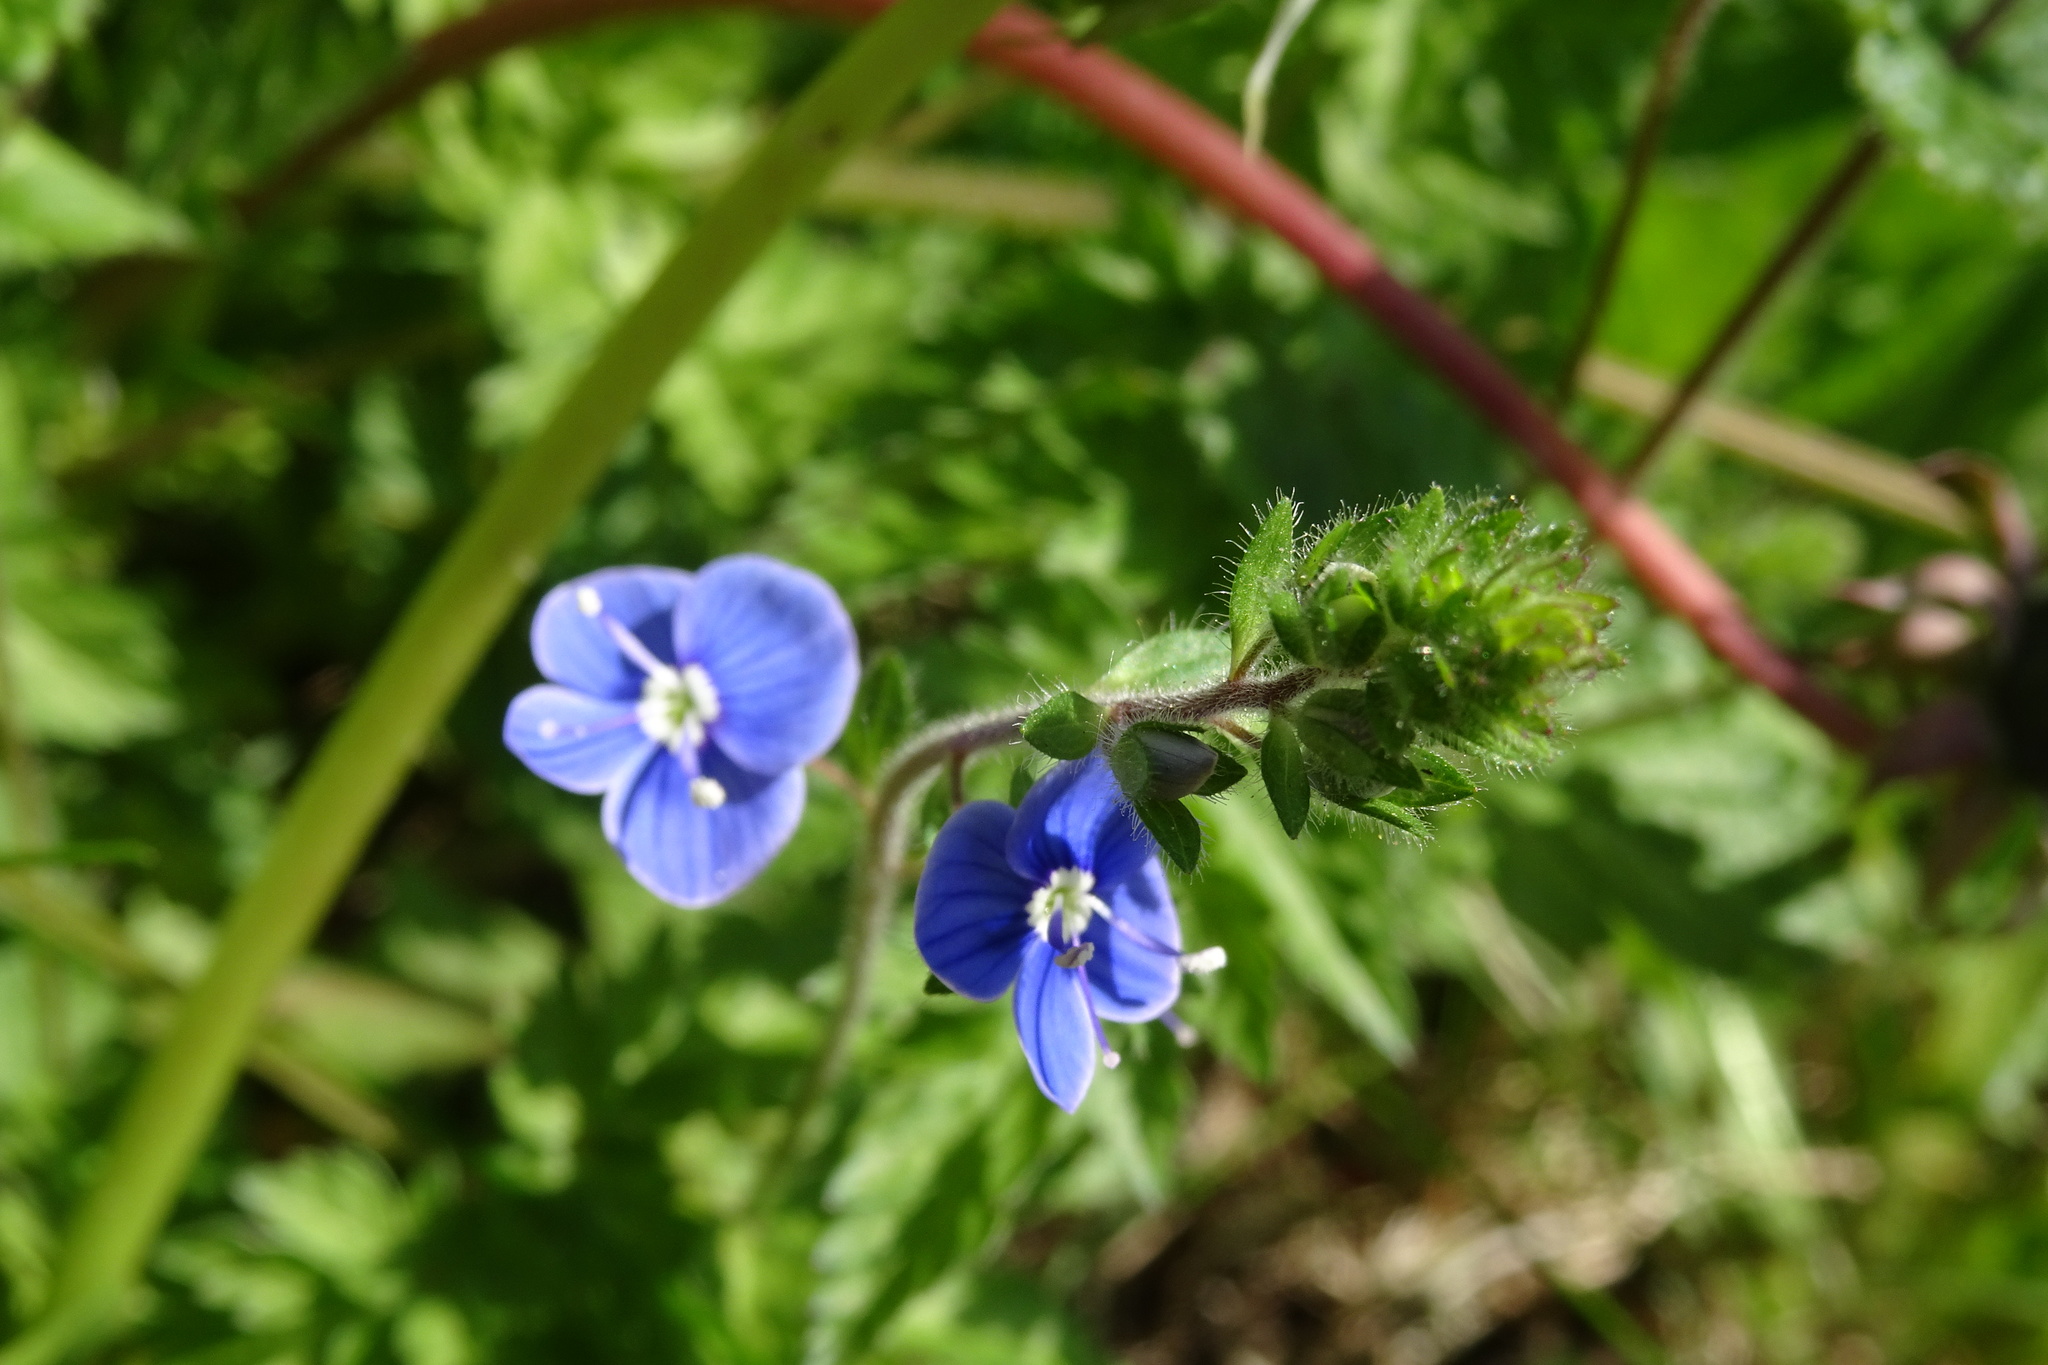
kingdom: Plantae
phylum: Tracheophyta
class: Magnoliopsida
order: Lamiales
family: Plantaginaceae
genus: Veronica
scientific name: Veronica chamaedrys
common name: Germander speedwell
